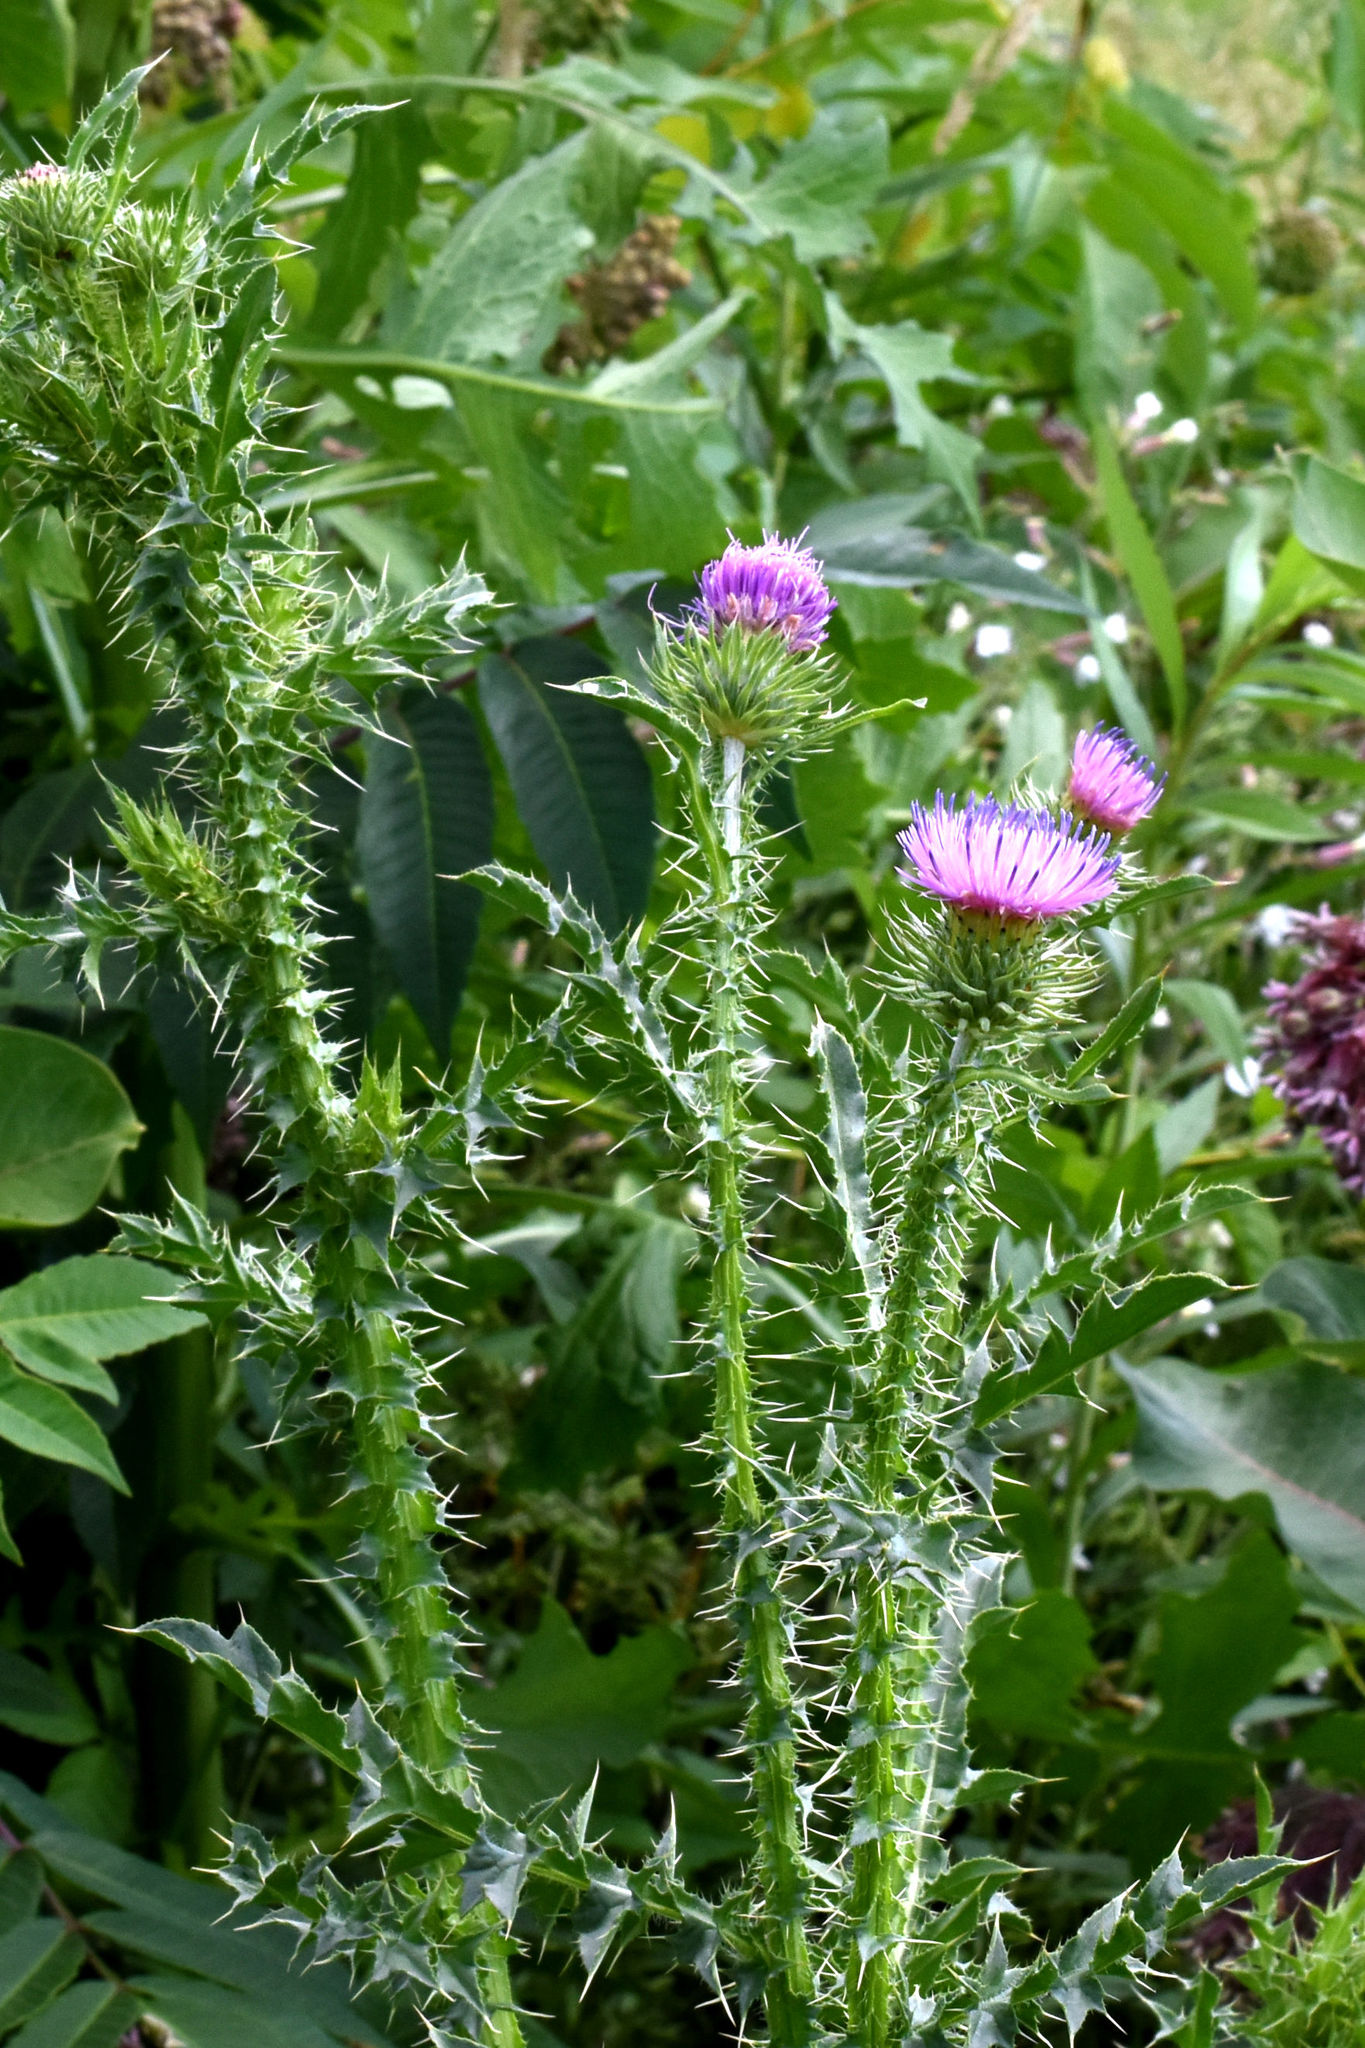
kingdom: Plantae
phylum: Tracheophyta
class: Magnoliopsida
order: Asterales
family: Asteraceae
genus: Carduus
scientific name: Carduus acanthoides
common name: Plumeless thistle
